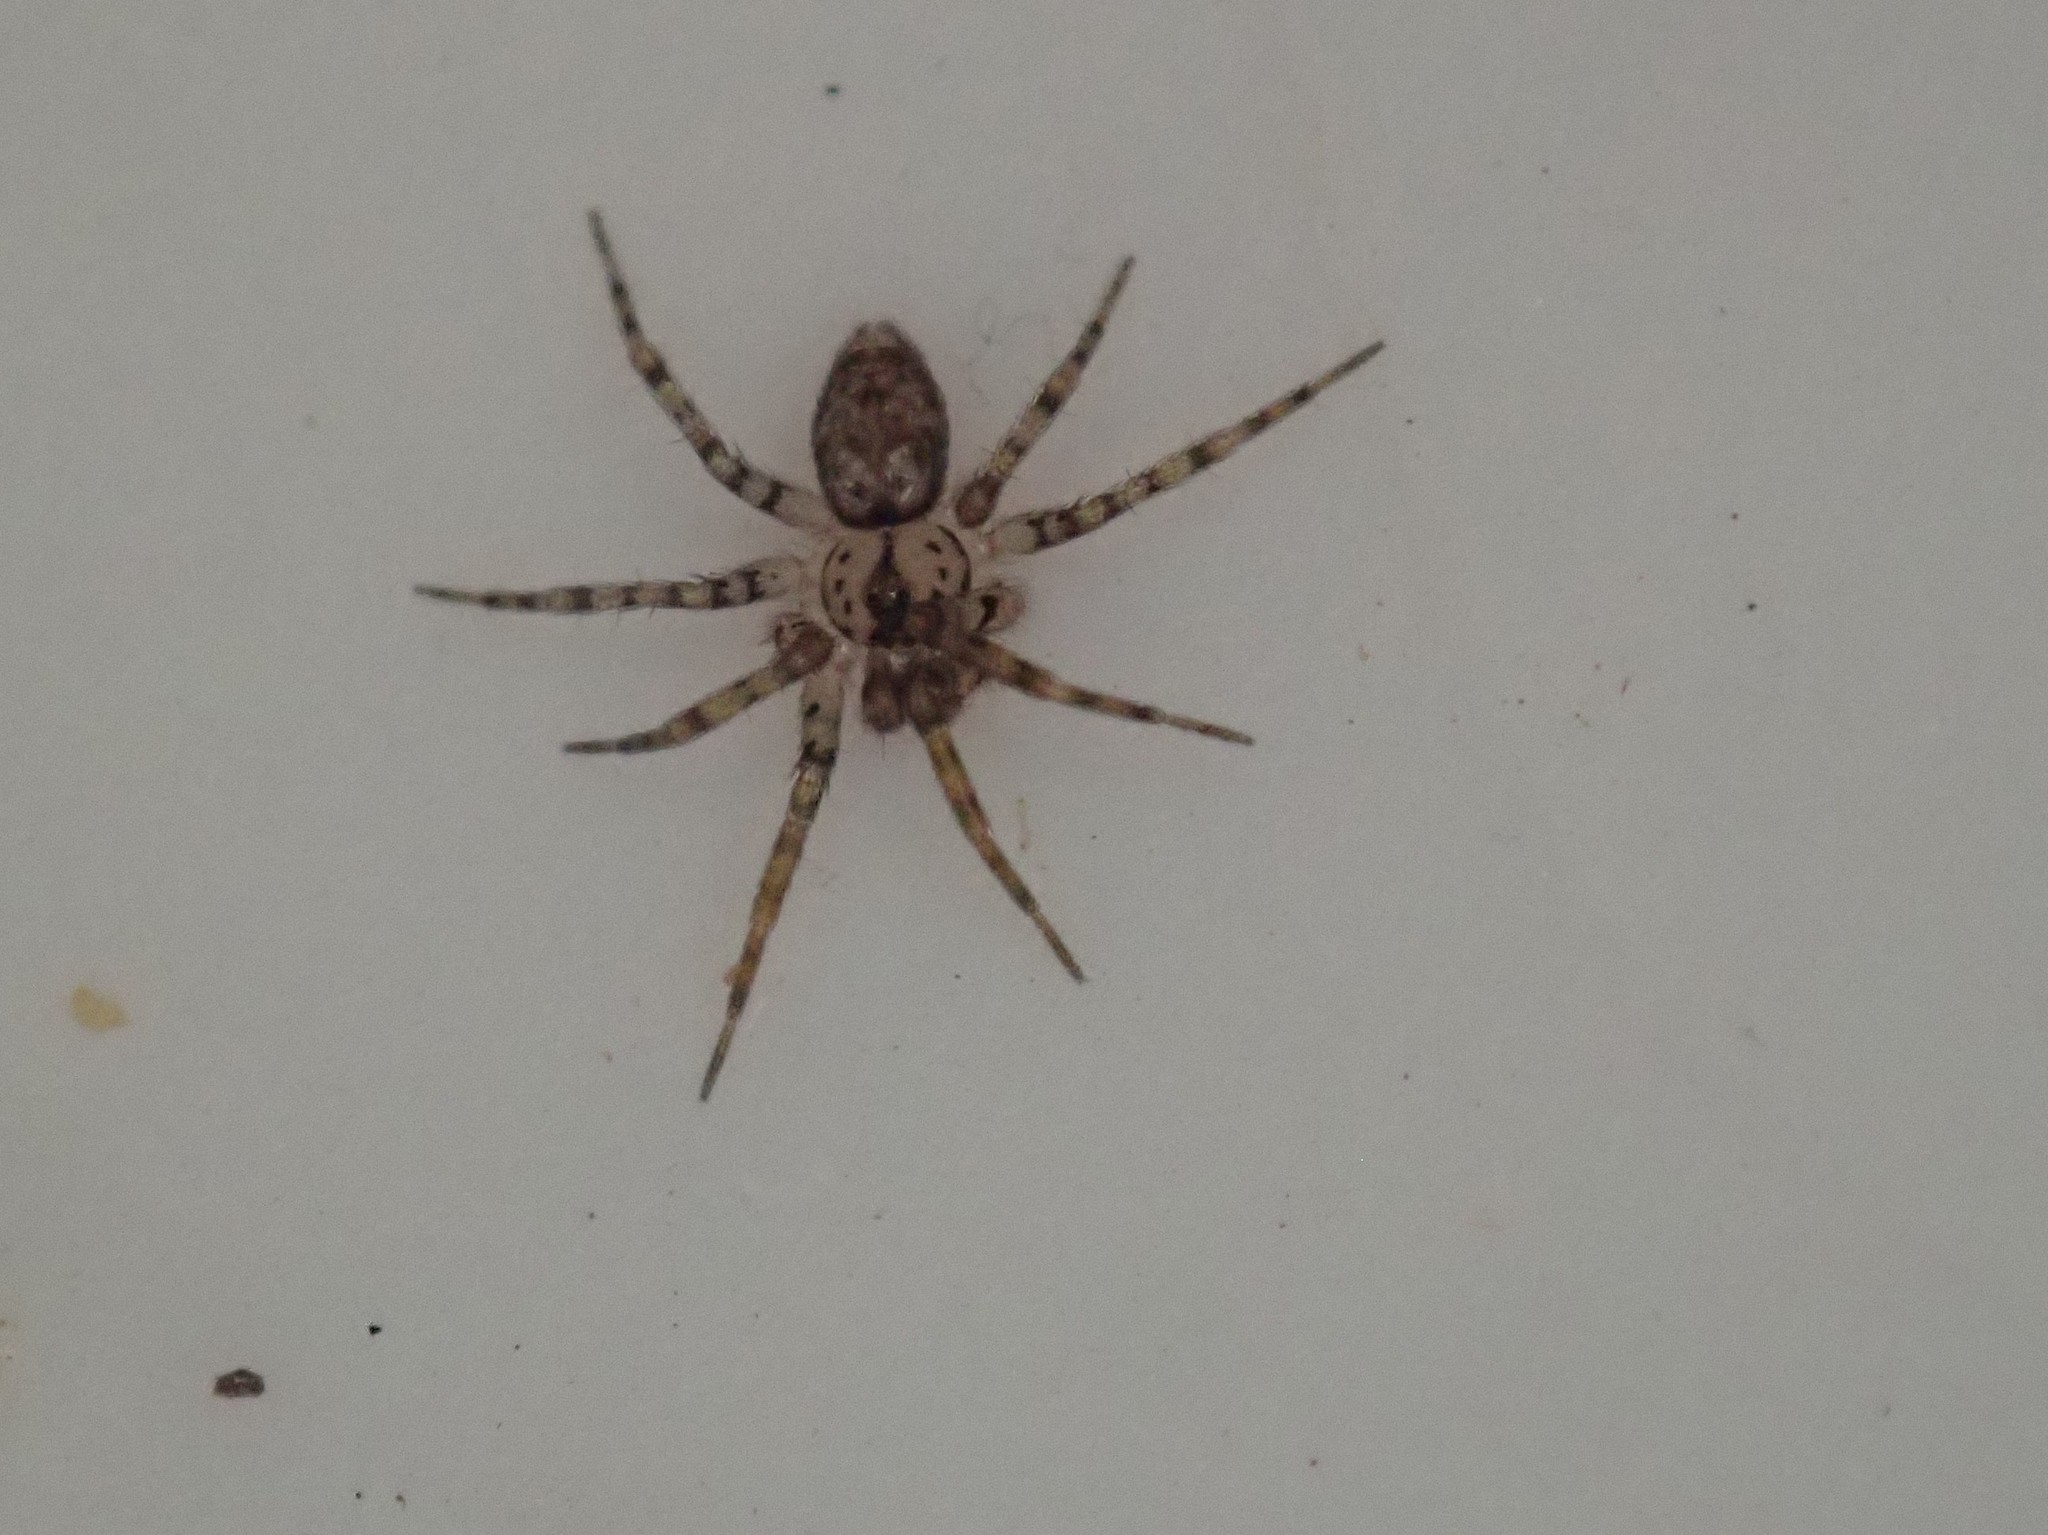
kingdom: Animalia
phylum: Arthropoda
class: Arachnida
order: Araneae
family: Oecobiidae
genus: Oecobius
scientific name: Oecobius navus
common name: Flatmesh weaver
